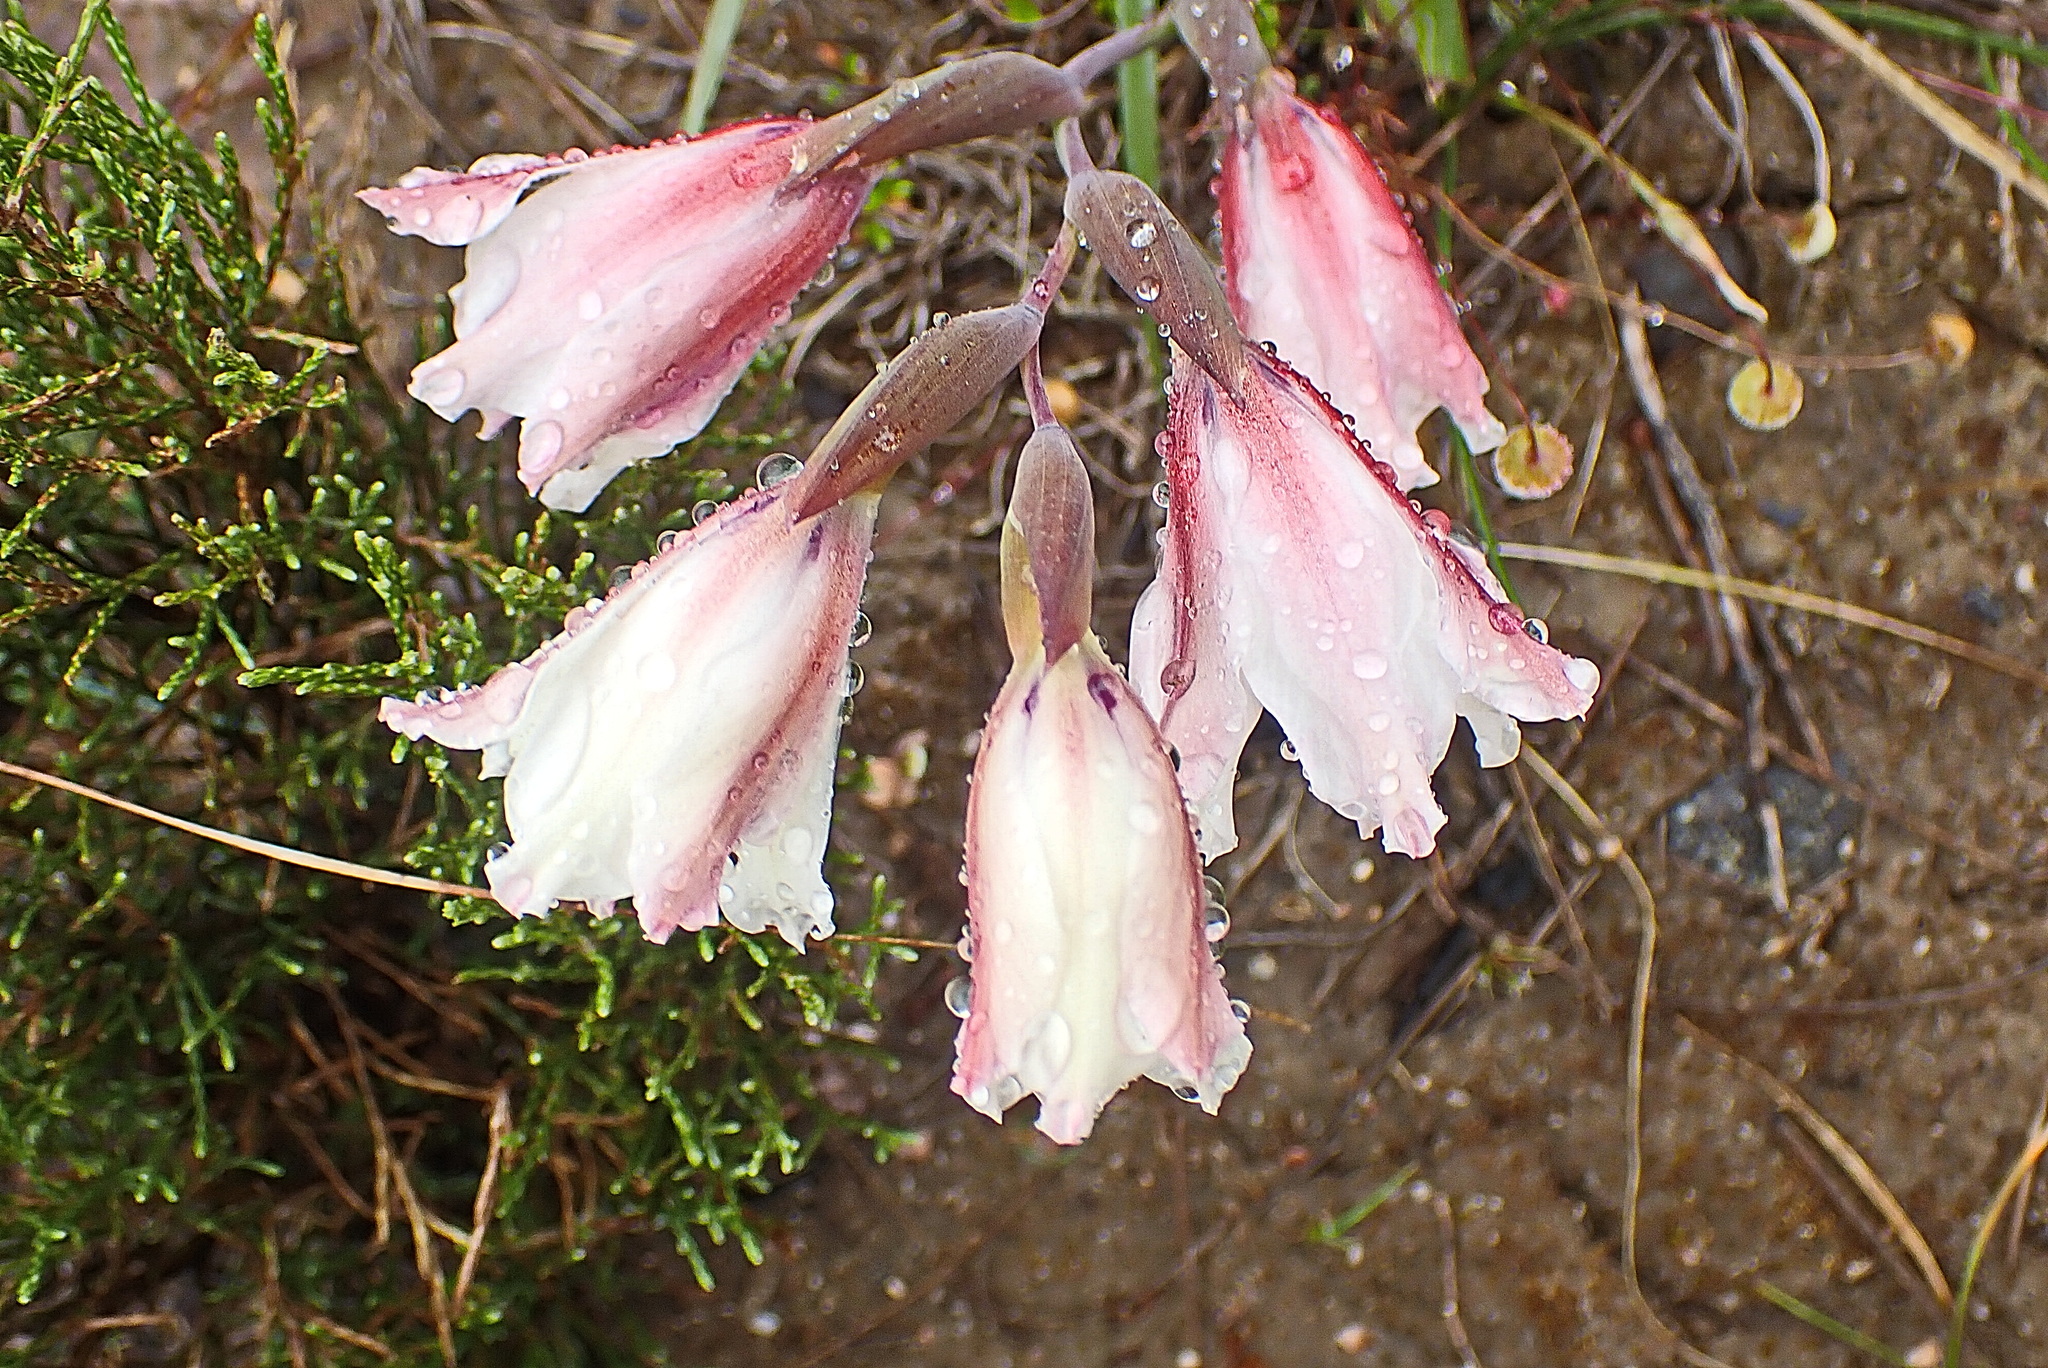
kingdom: Plantae
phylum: Tracheophyta
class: Liliopsida
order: Asparagales
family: Iridaceae
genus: Gladiolus
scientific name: Gladiolus floribundus
